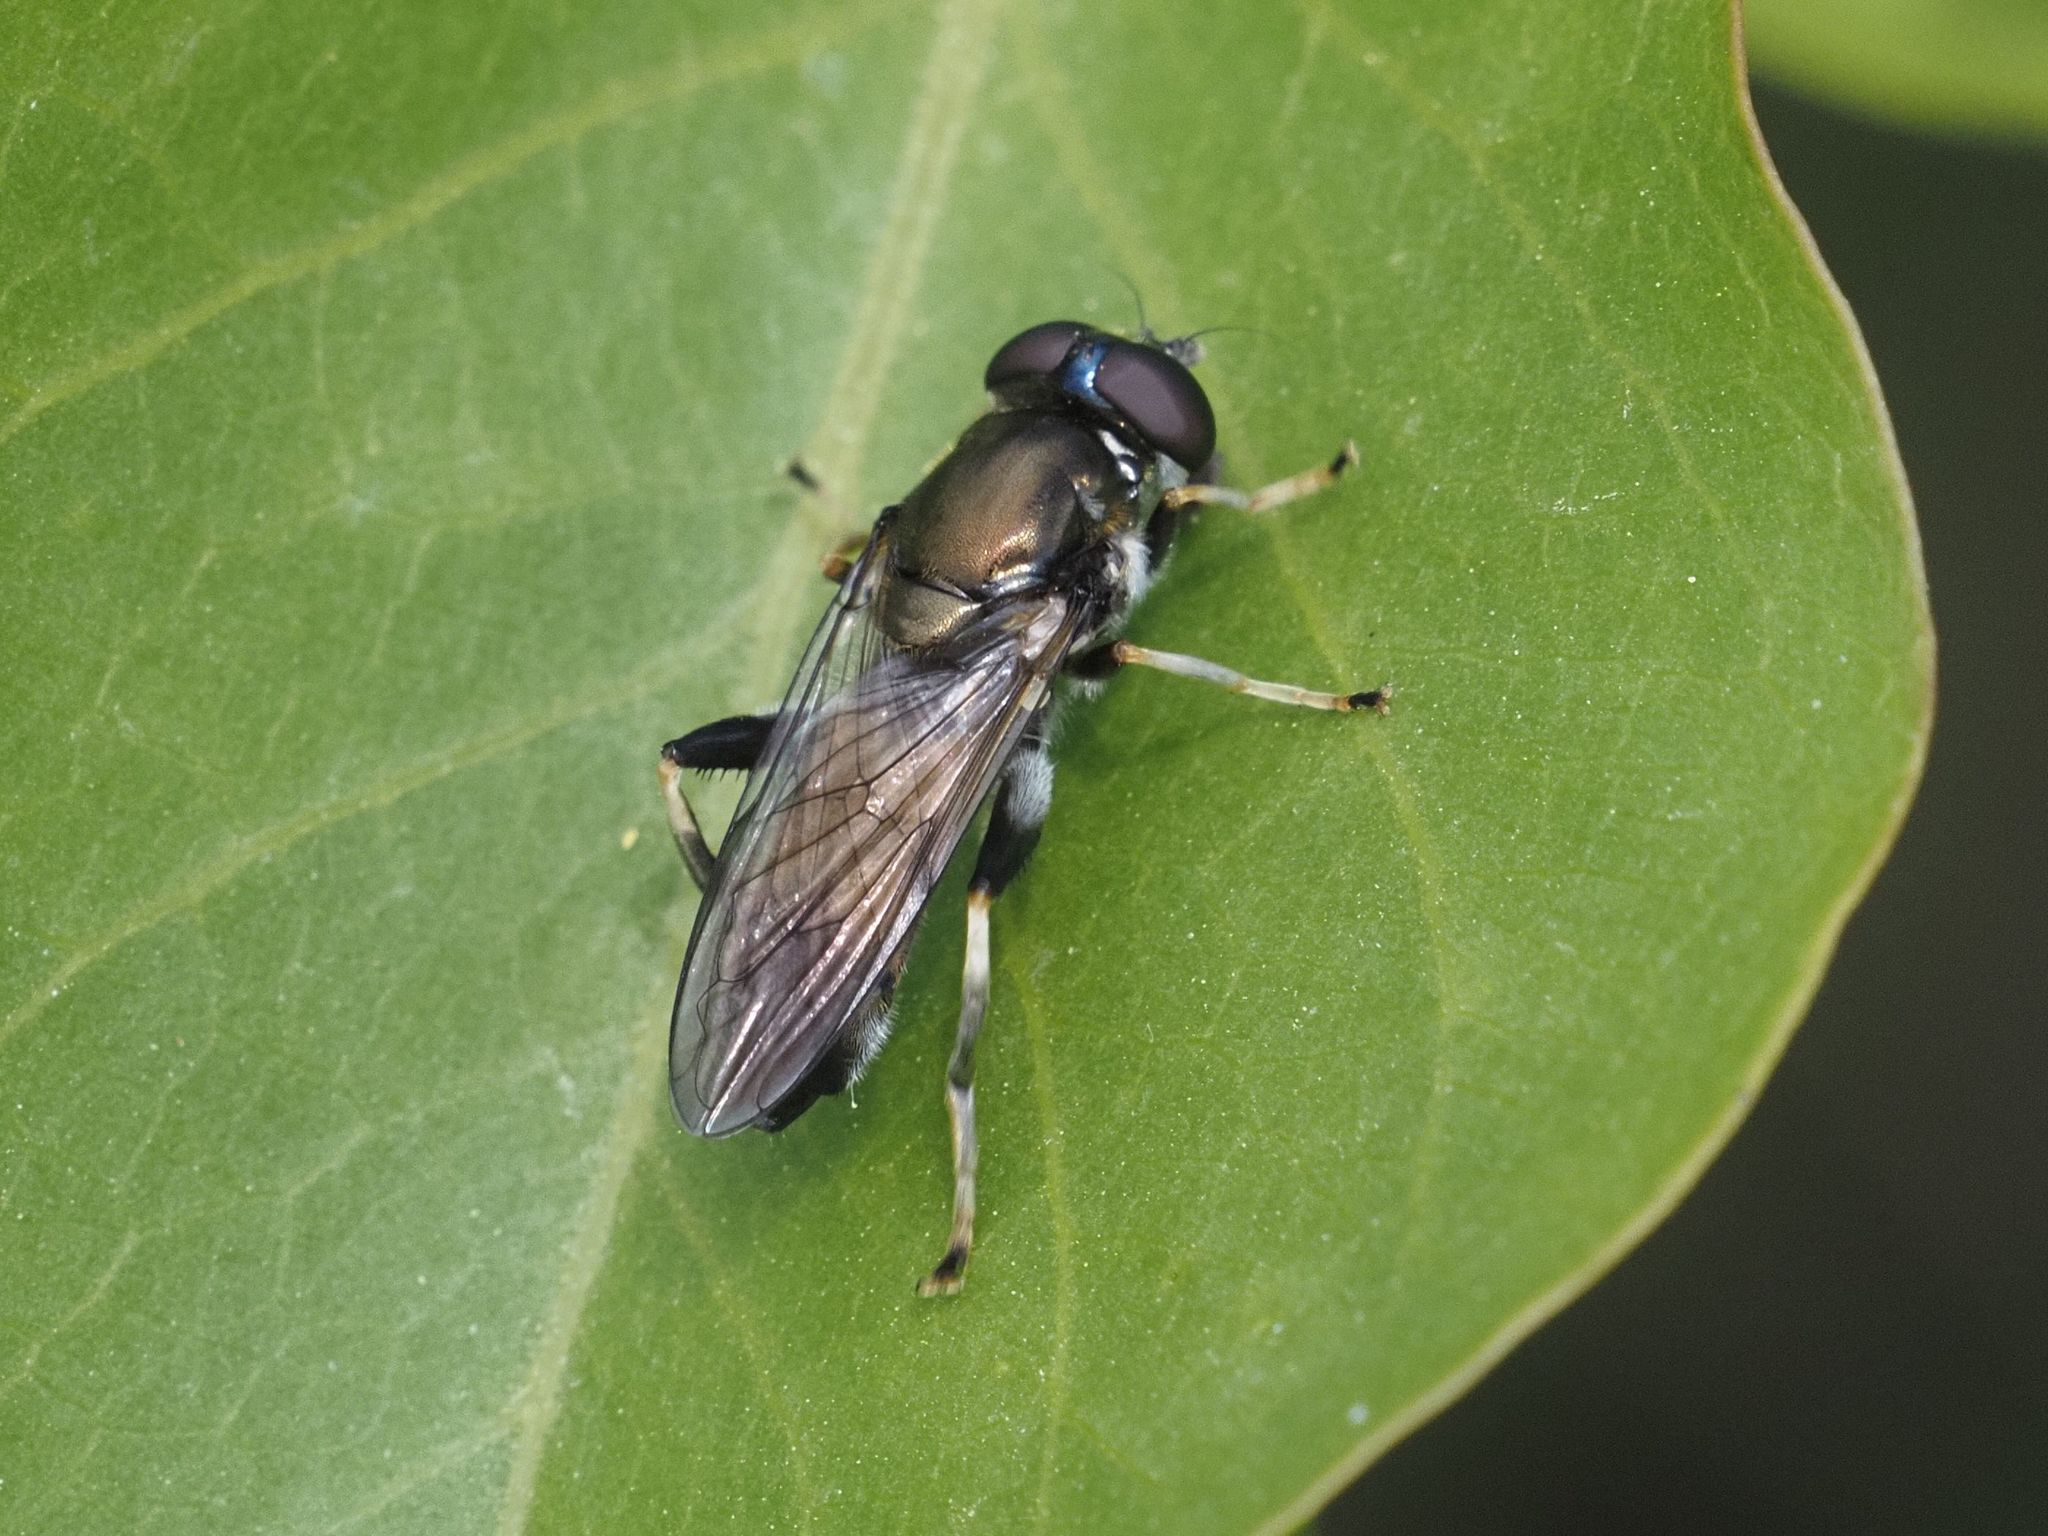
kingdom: Animalia
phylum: Arthropoda
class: Insecta
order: Diptera
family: Syrphidae
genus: Xylota
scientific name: Xylota segnis
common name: Brown-toed forest fly
